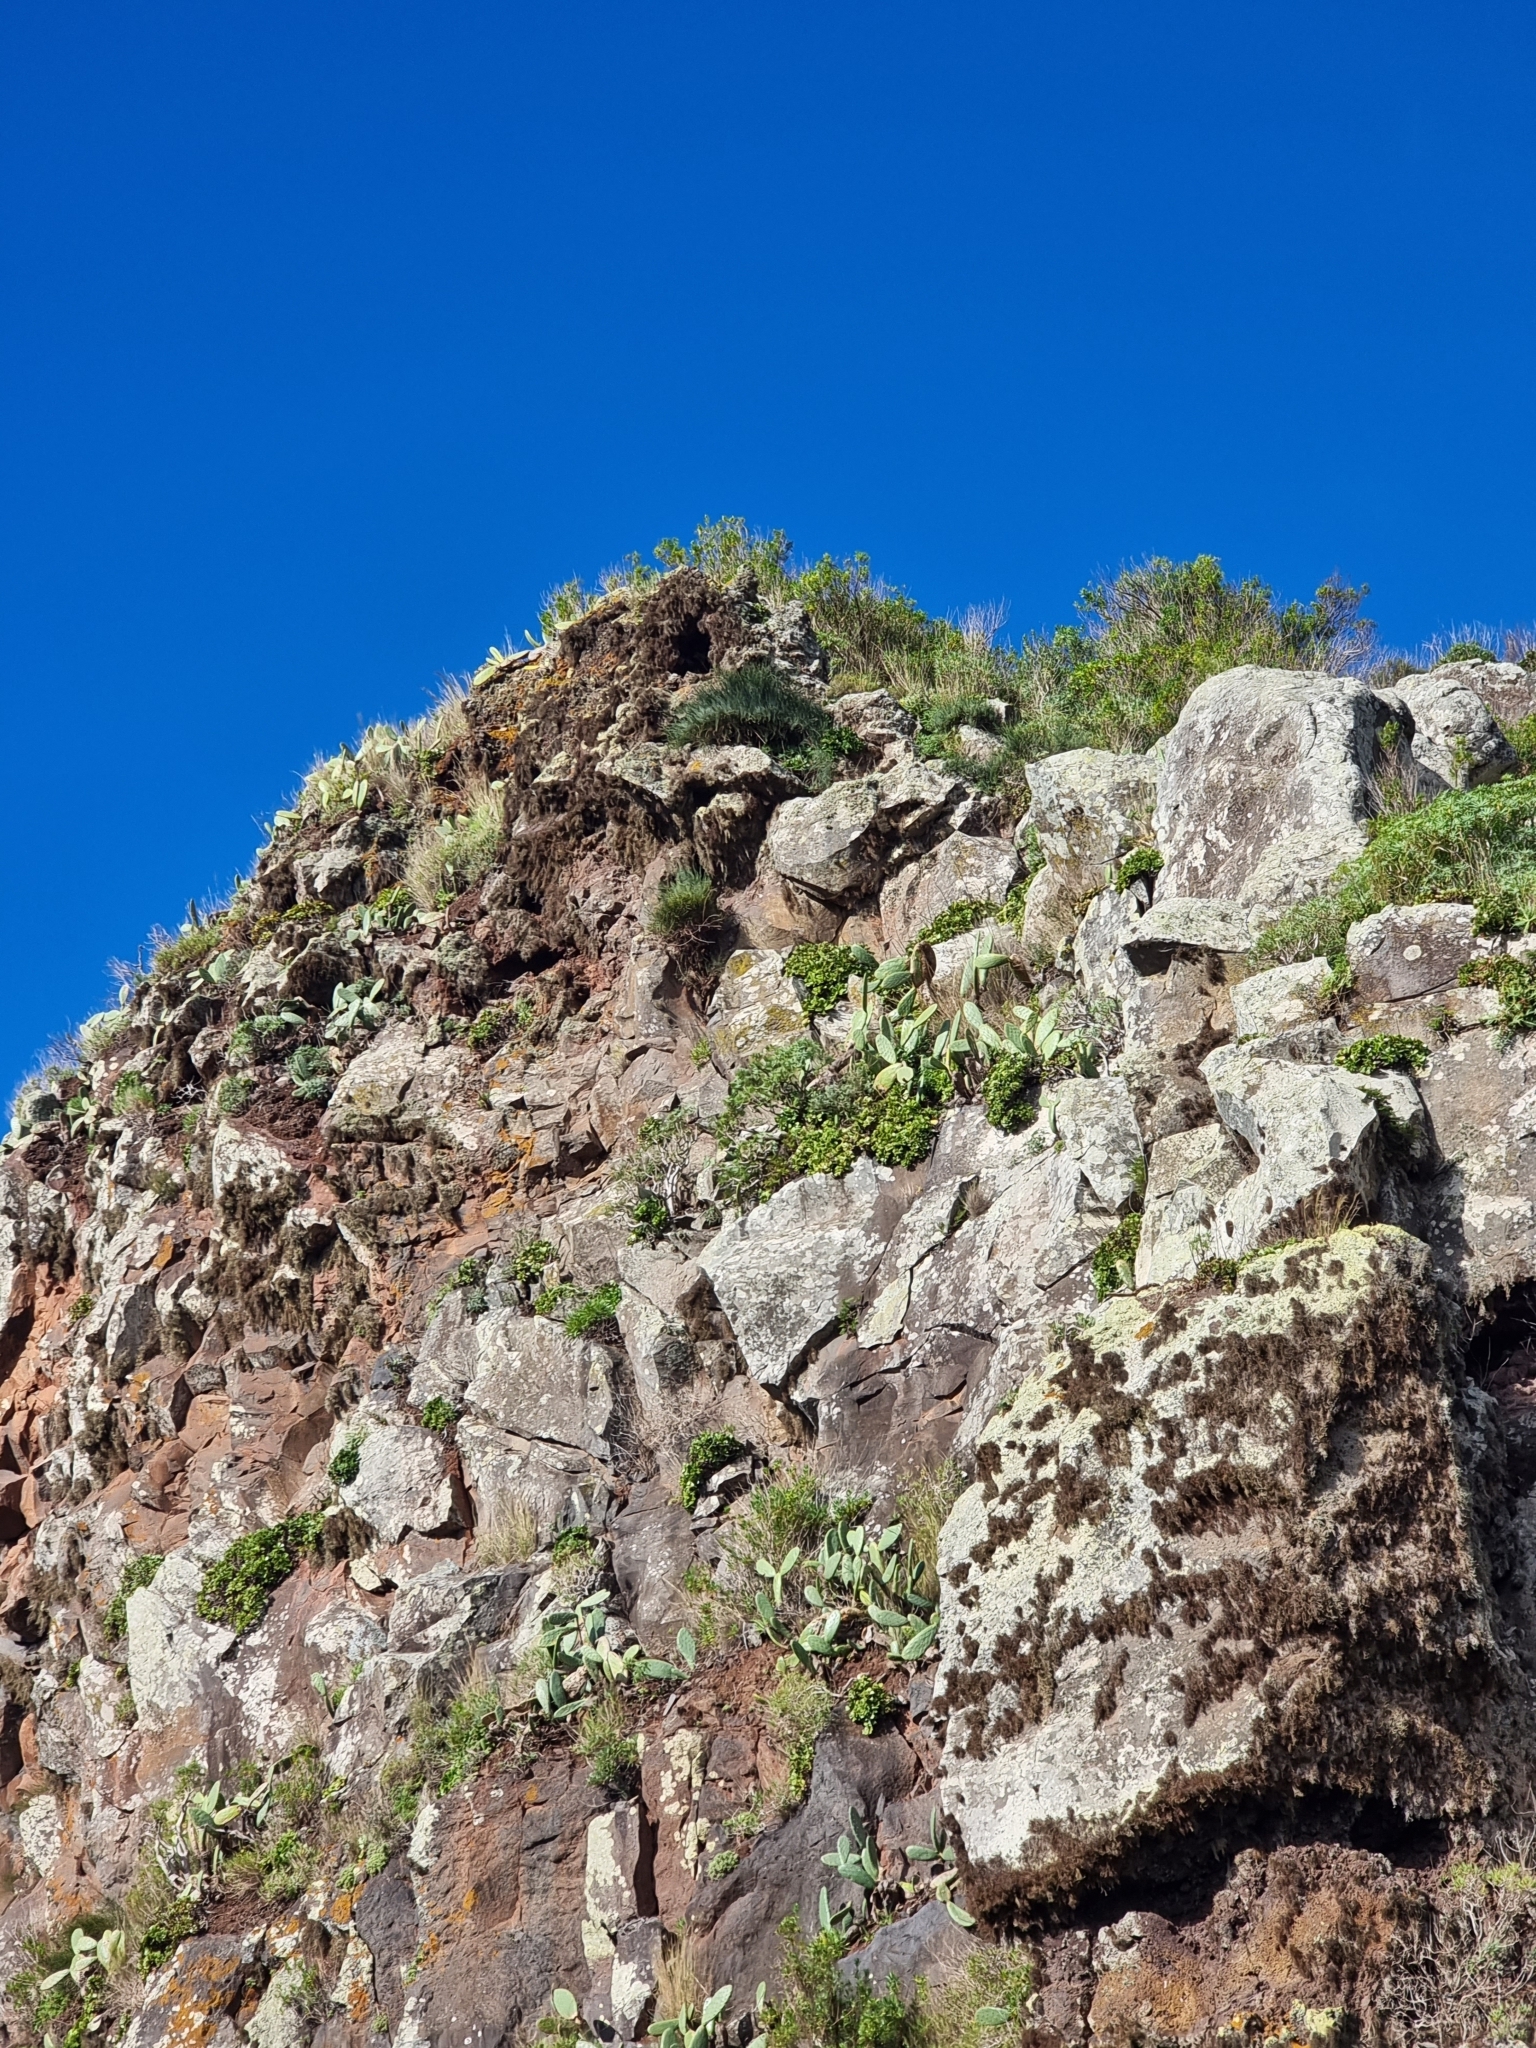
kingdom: Plantae
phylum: Tracheophyta
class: Gnetopsida
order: Ephedrales
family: Ephedraceae
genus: Ephedra
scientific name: Ephedra fragilis
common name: Joint pine
